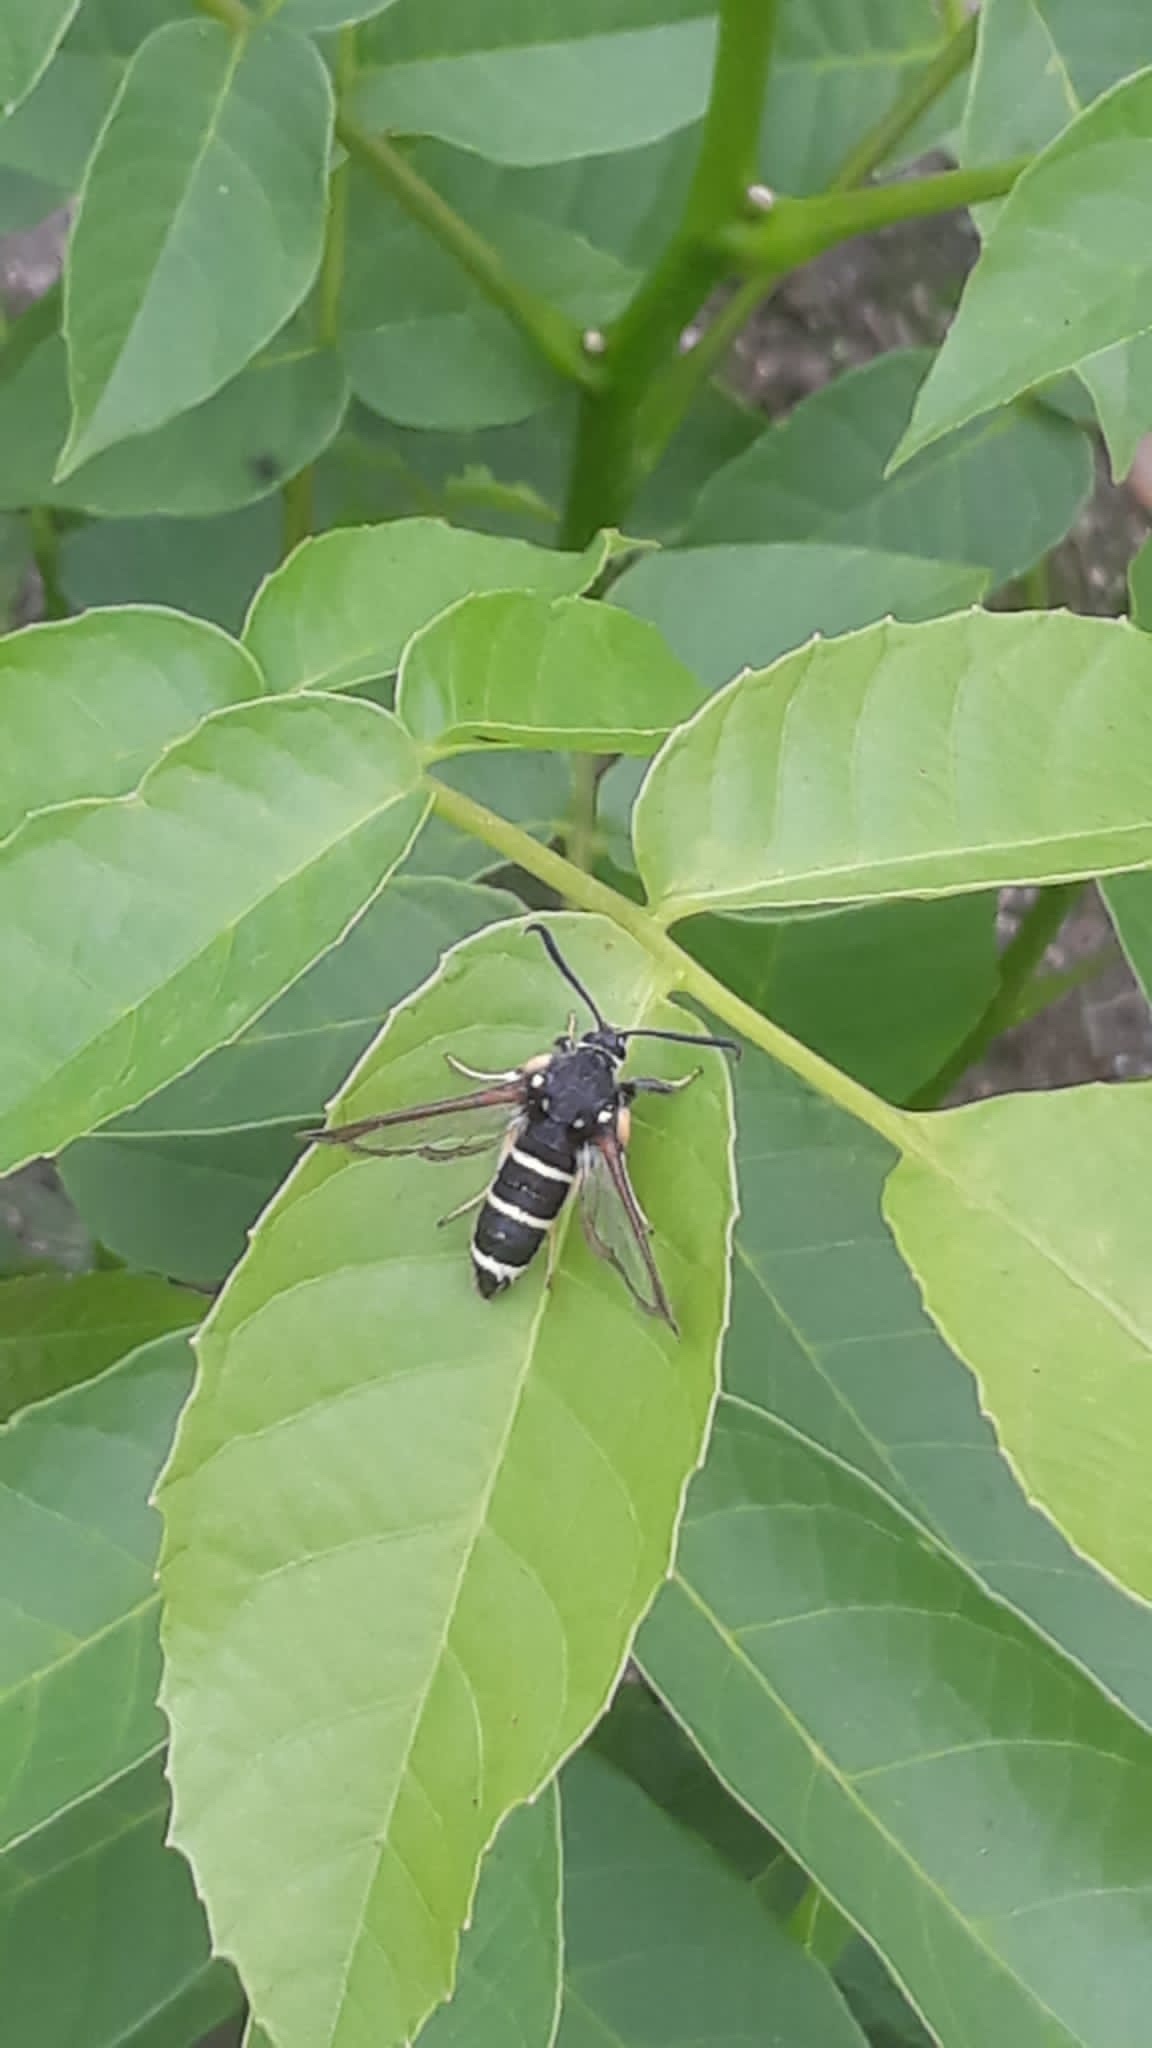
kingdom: Animalia
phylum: Arthropoda
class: Insecta
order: Lepidoptera
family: Sesiidae
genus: Paranthrene
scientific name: Paranthrene tabaniformis
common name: Dusky clearwing
